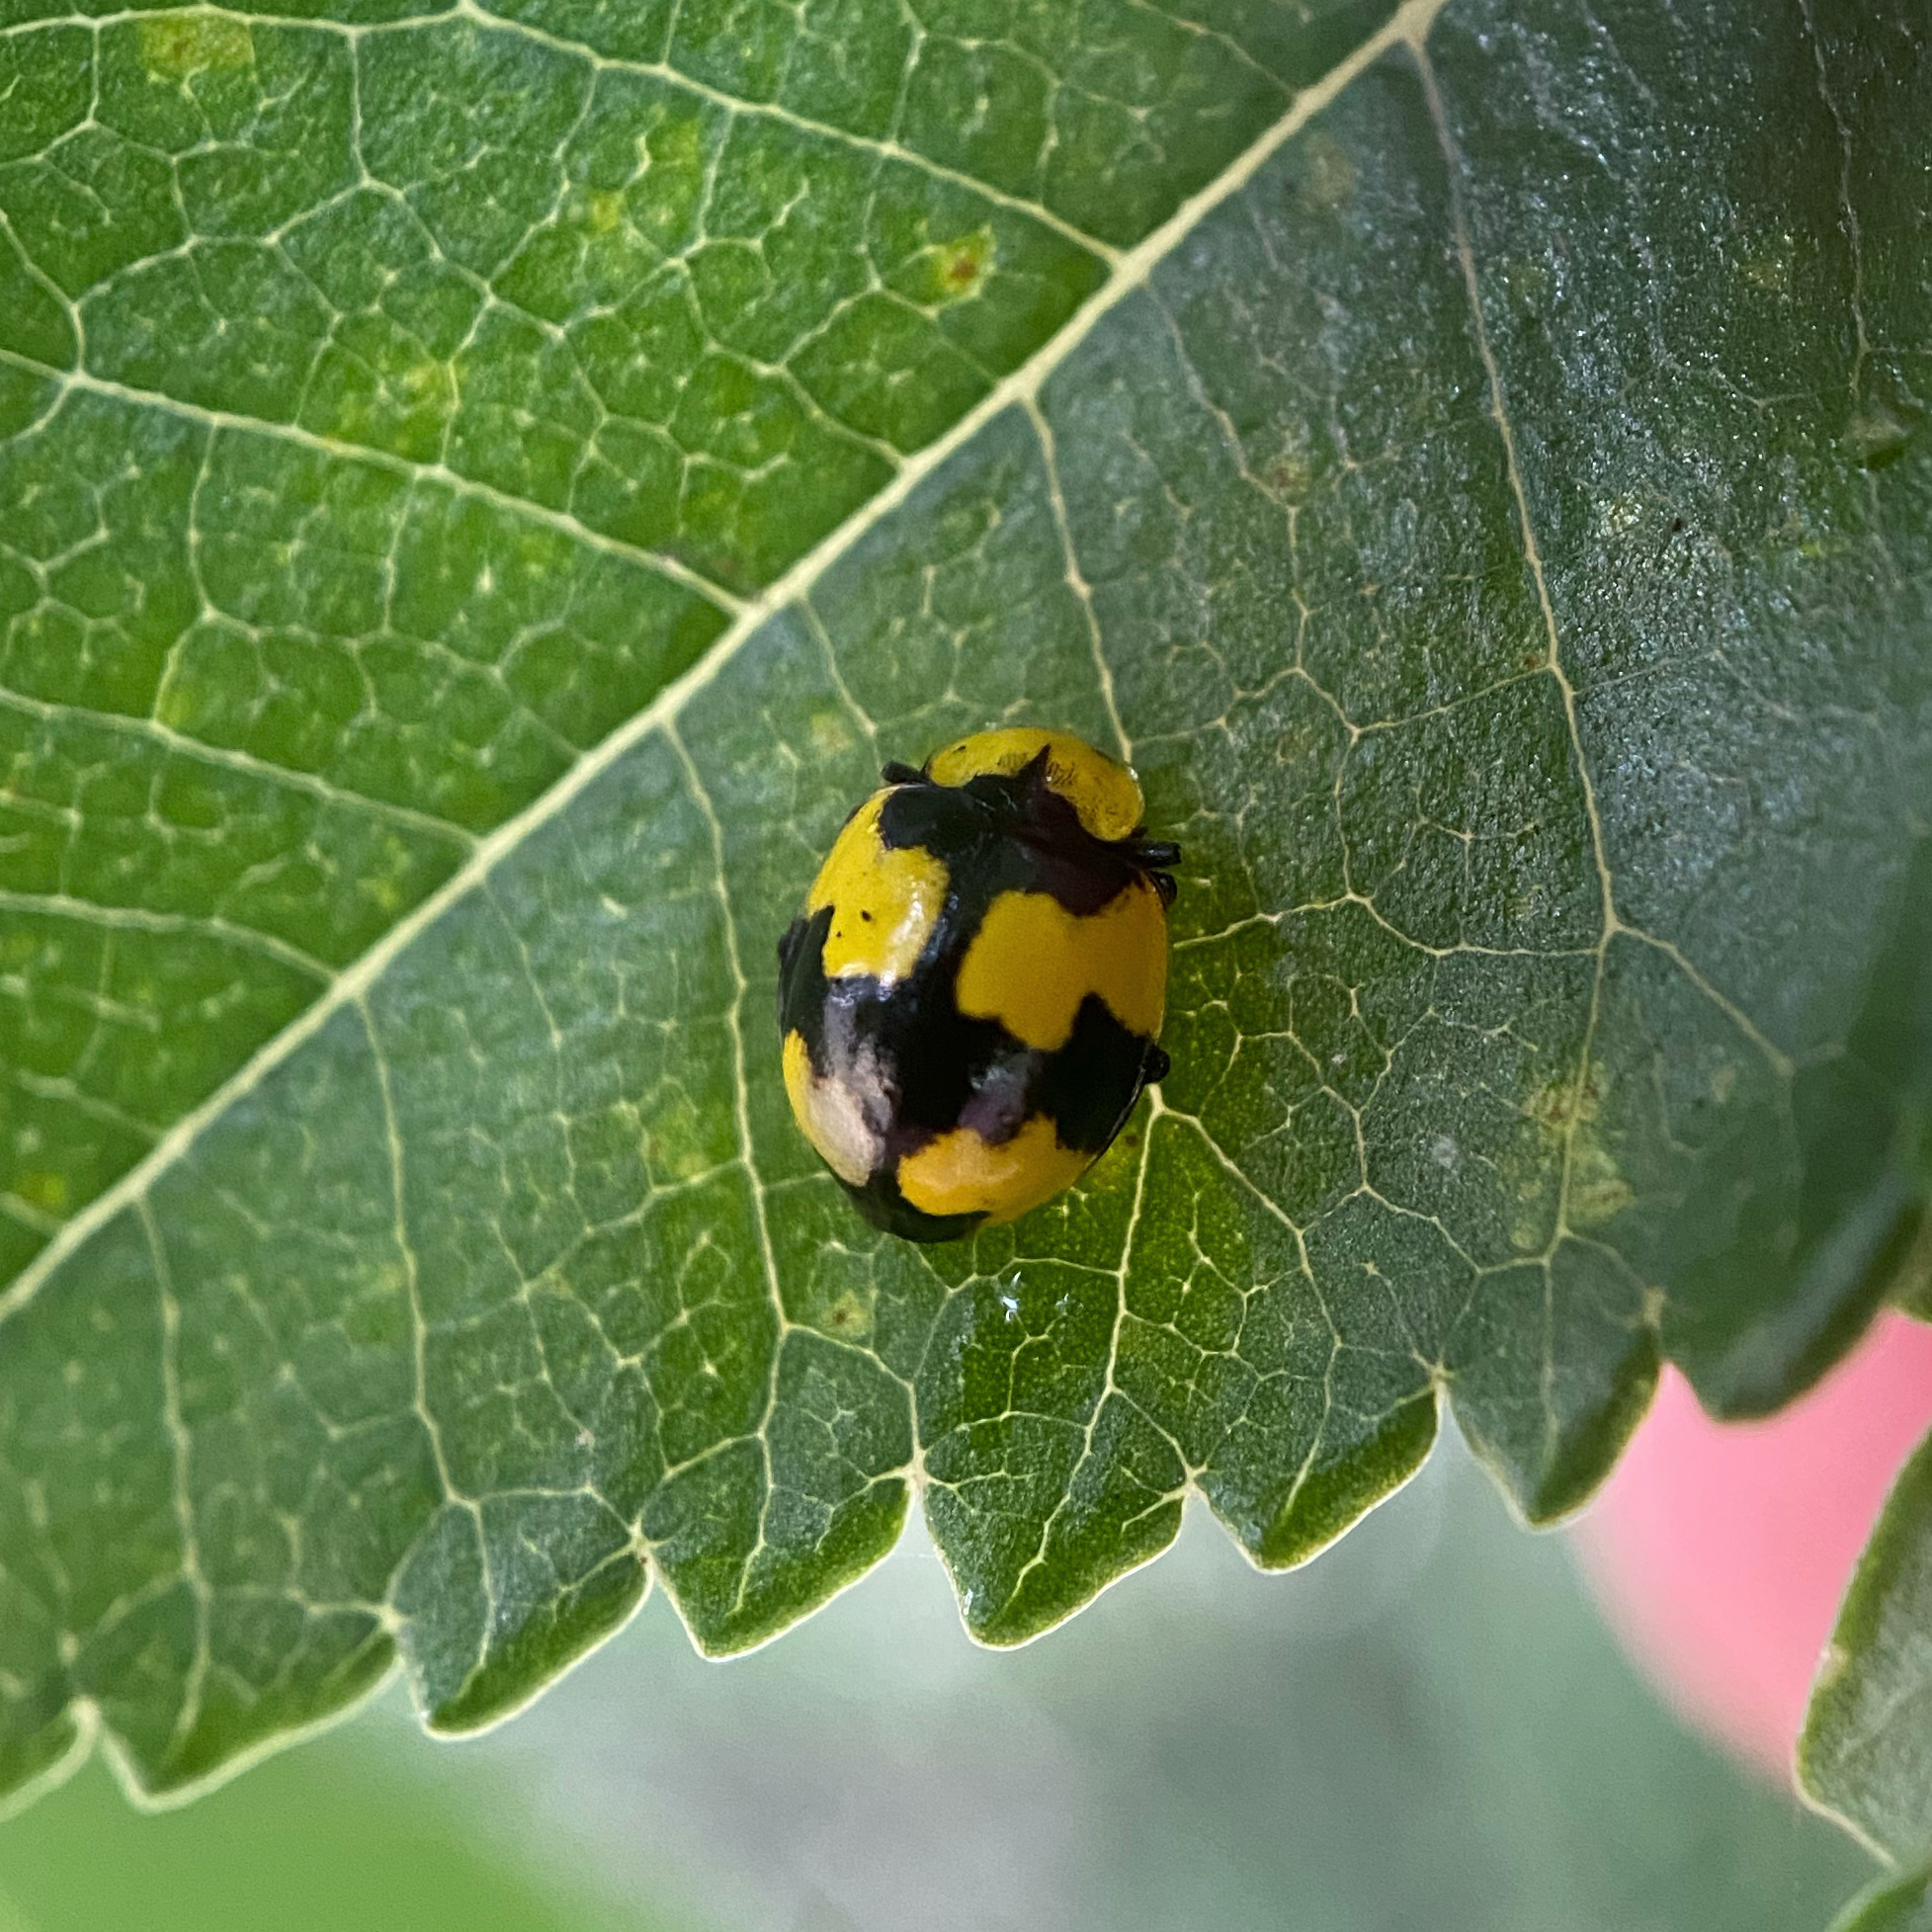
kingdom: Animalia
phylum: Arthropoda
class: Insecta
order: Coleoptera
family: Coccinellidae
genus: Illeis
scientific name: Illeis galbula
